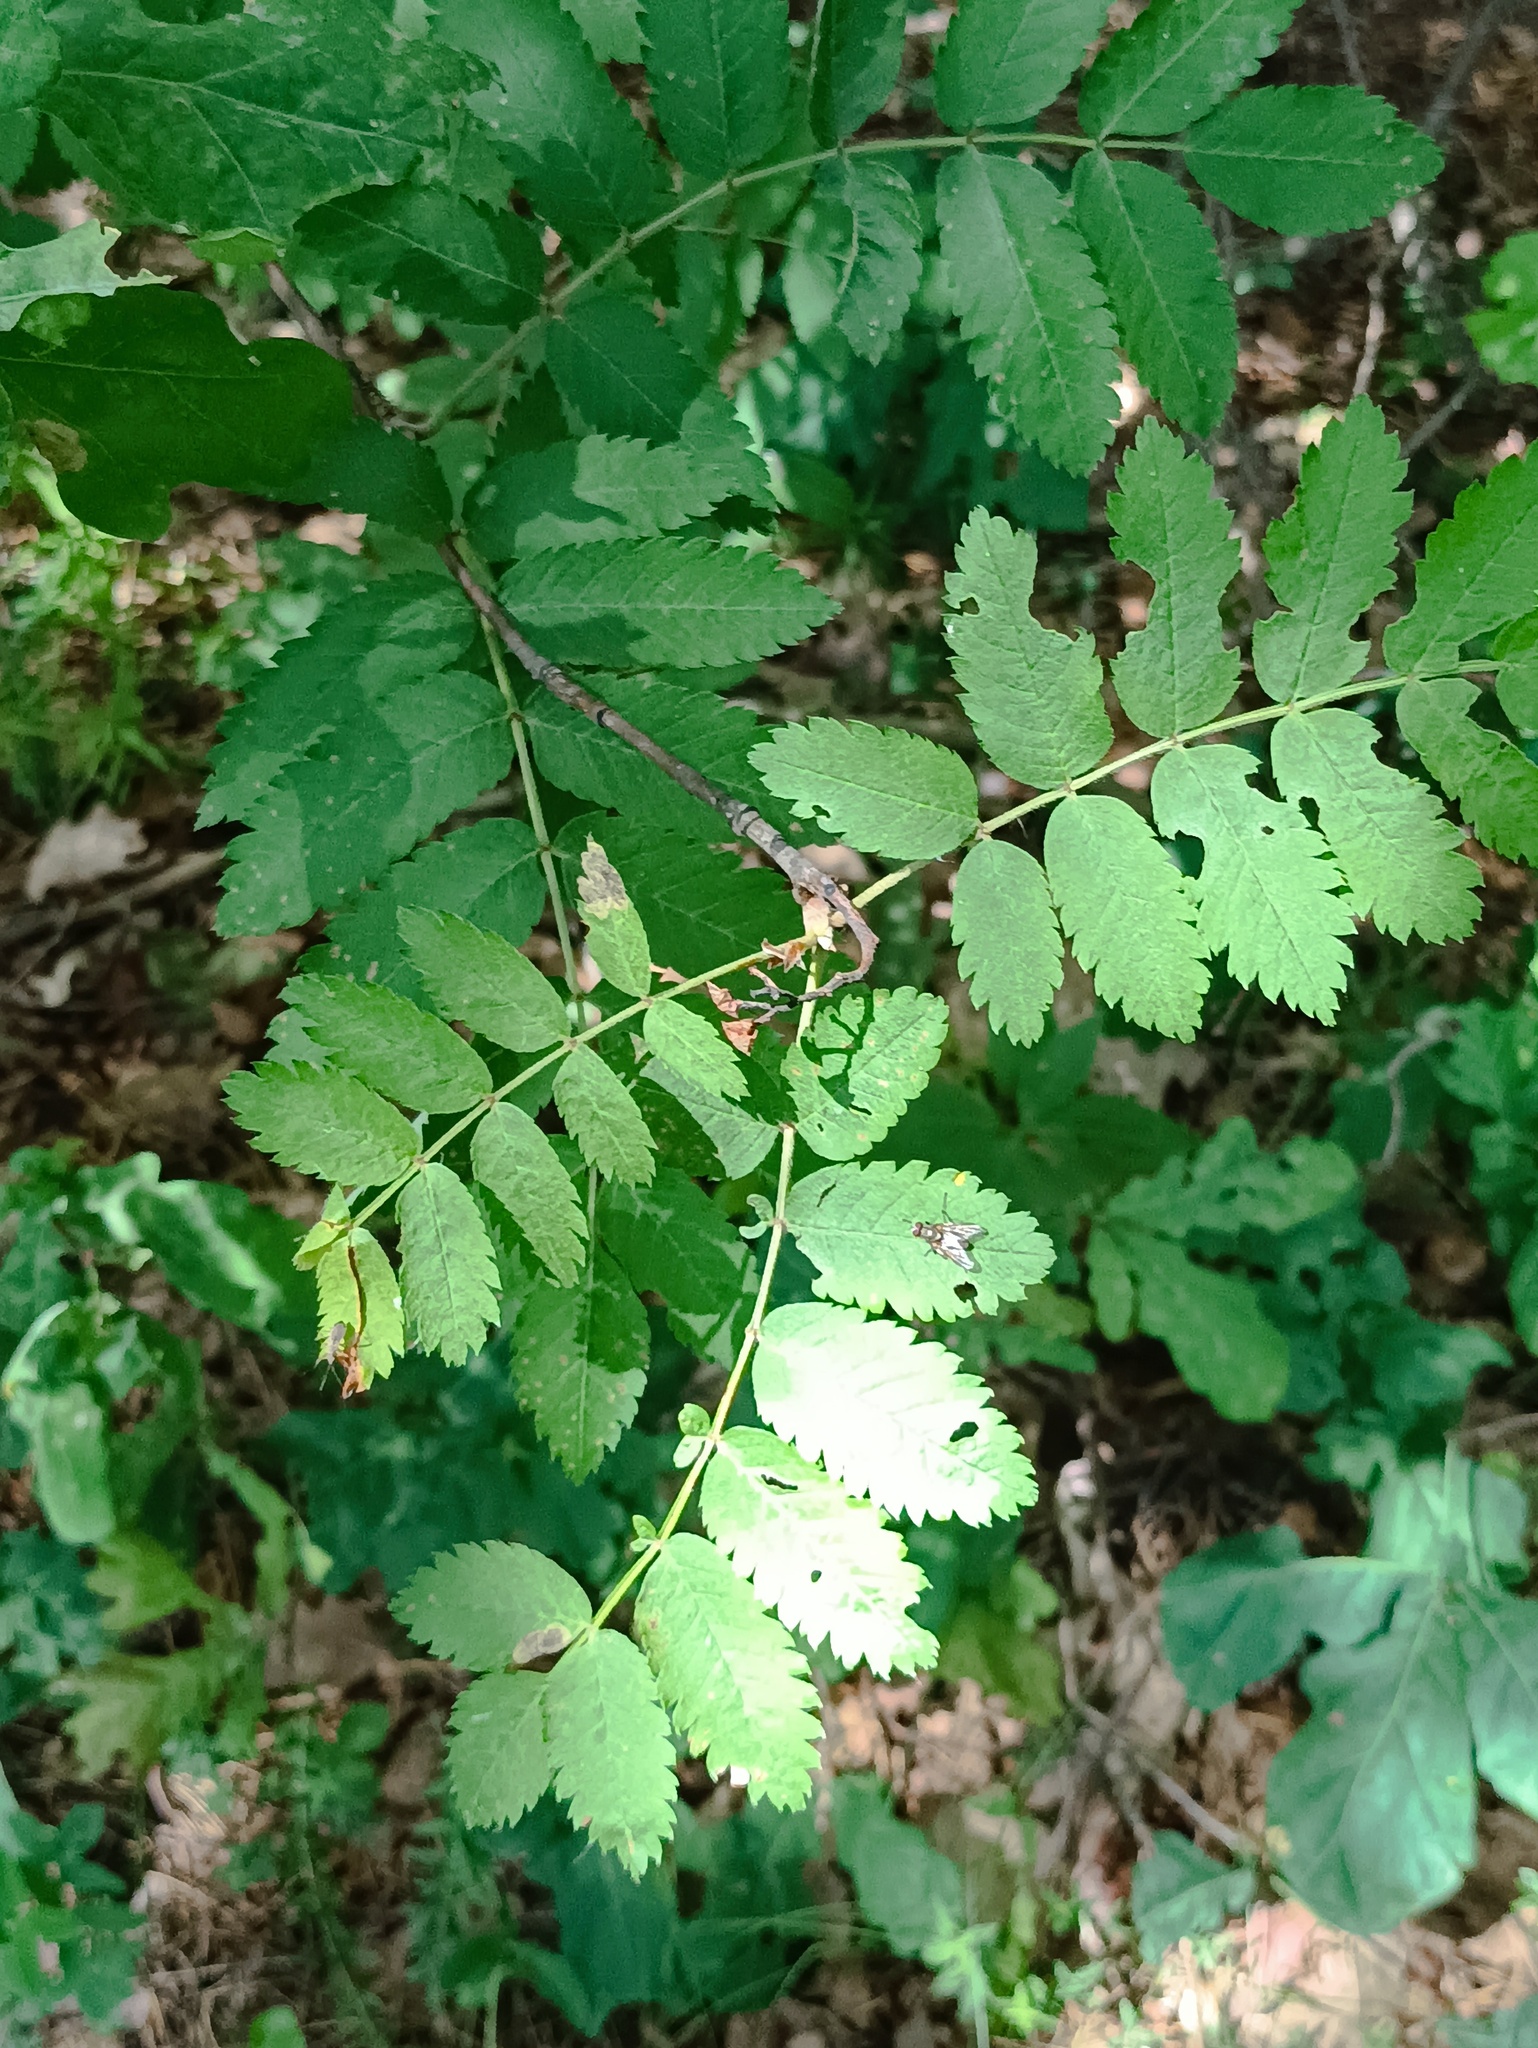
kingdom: Plantae
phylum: Tracheophyta
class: Magnoliopsida
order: Rosales
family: Rosaceae
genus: Sorbus
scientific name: Sorbus aucuparia
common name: Rowan
